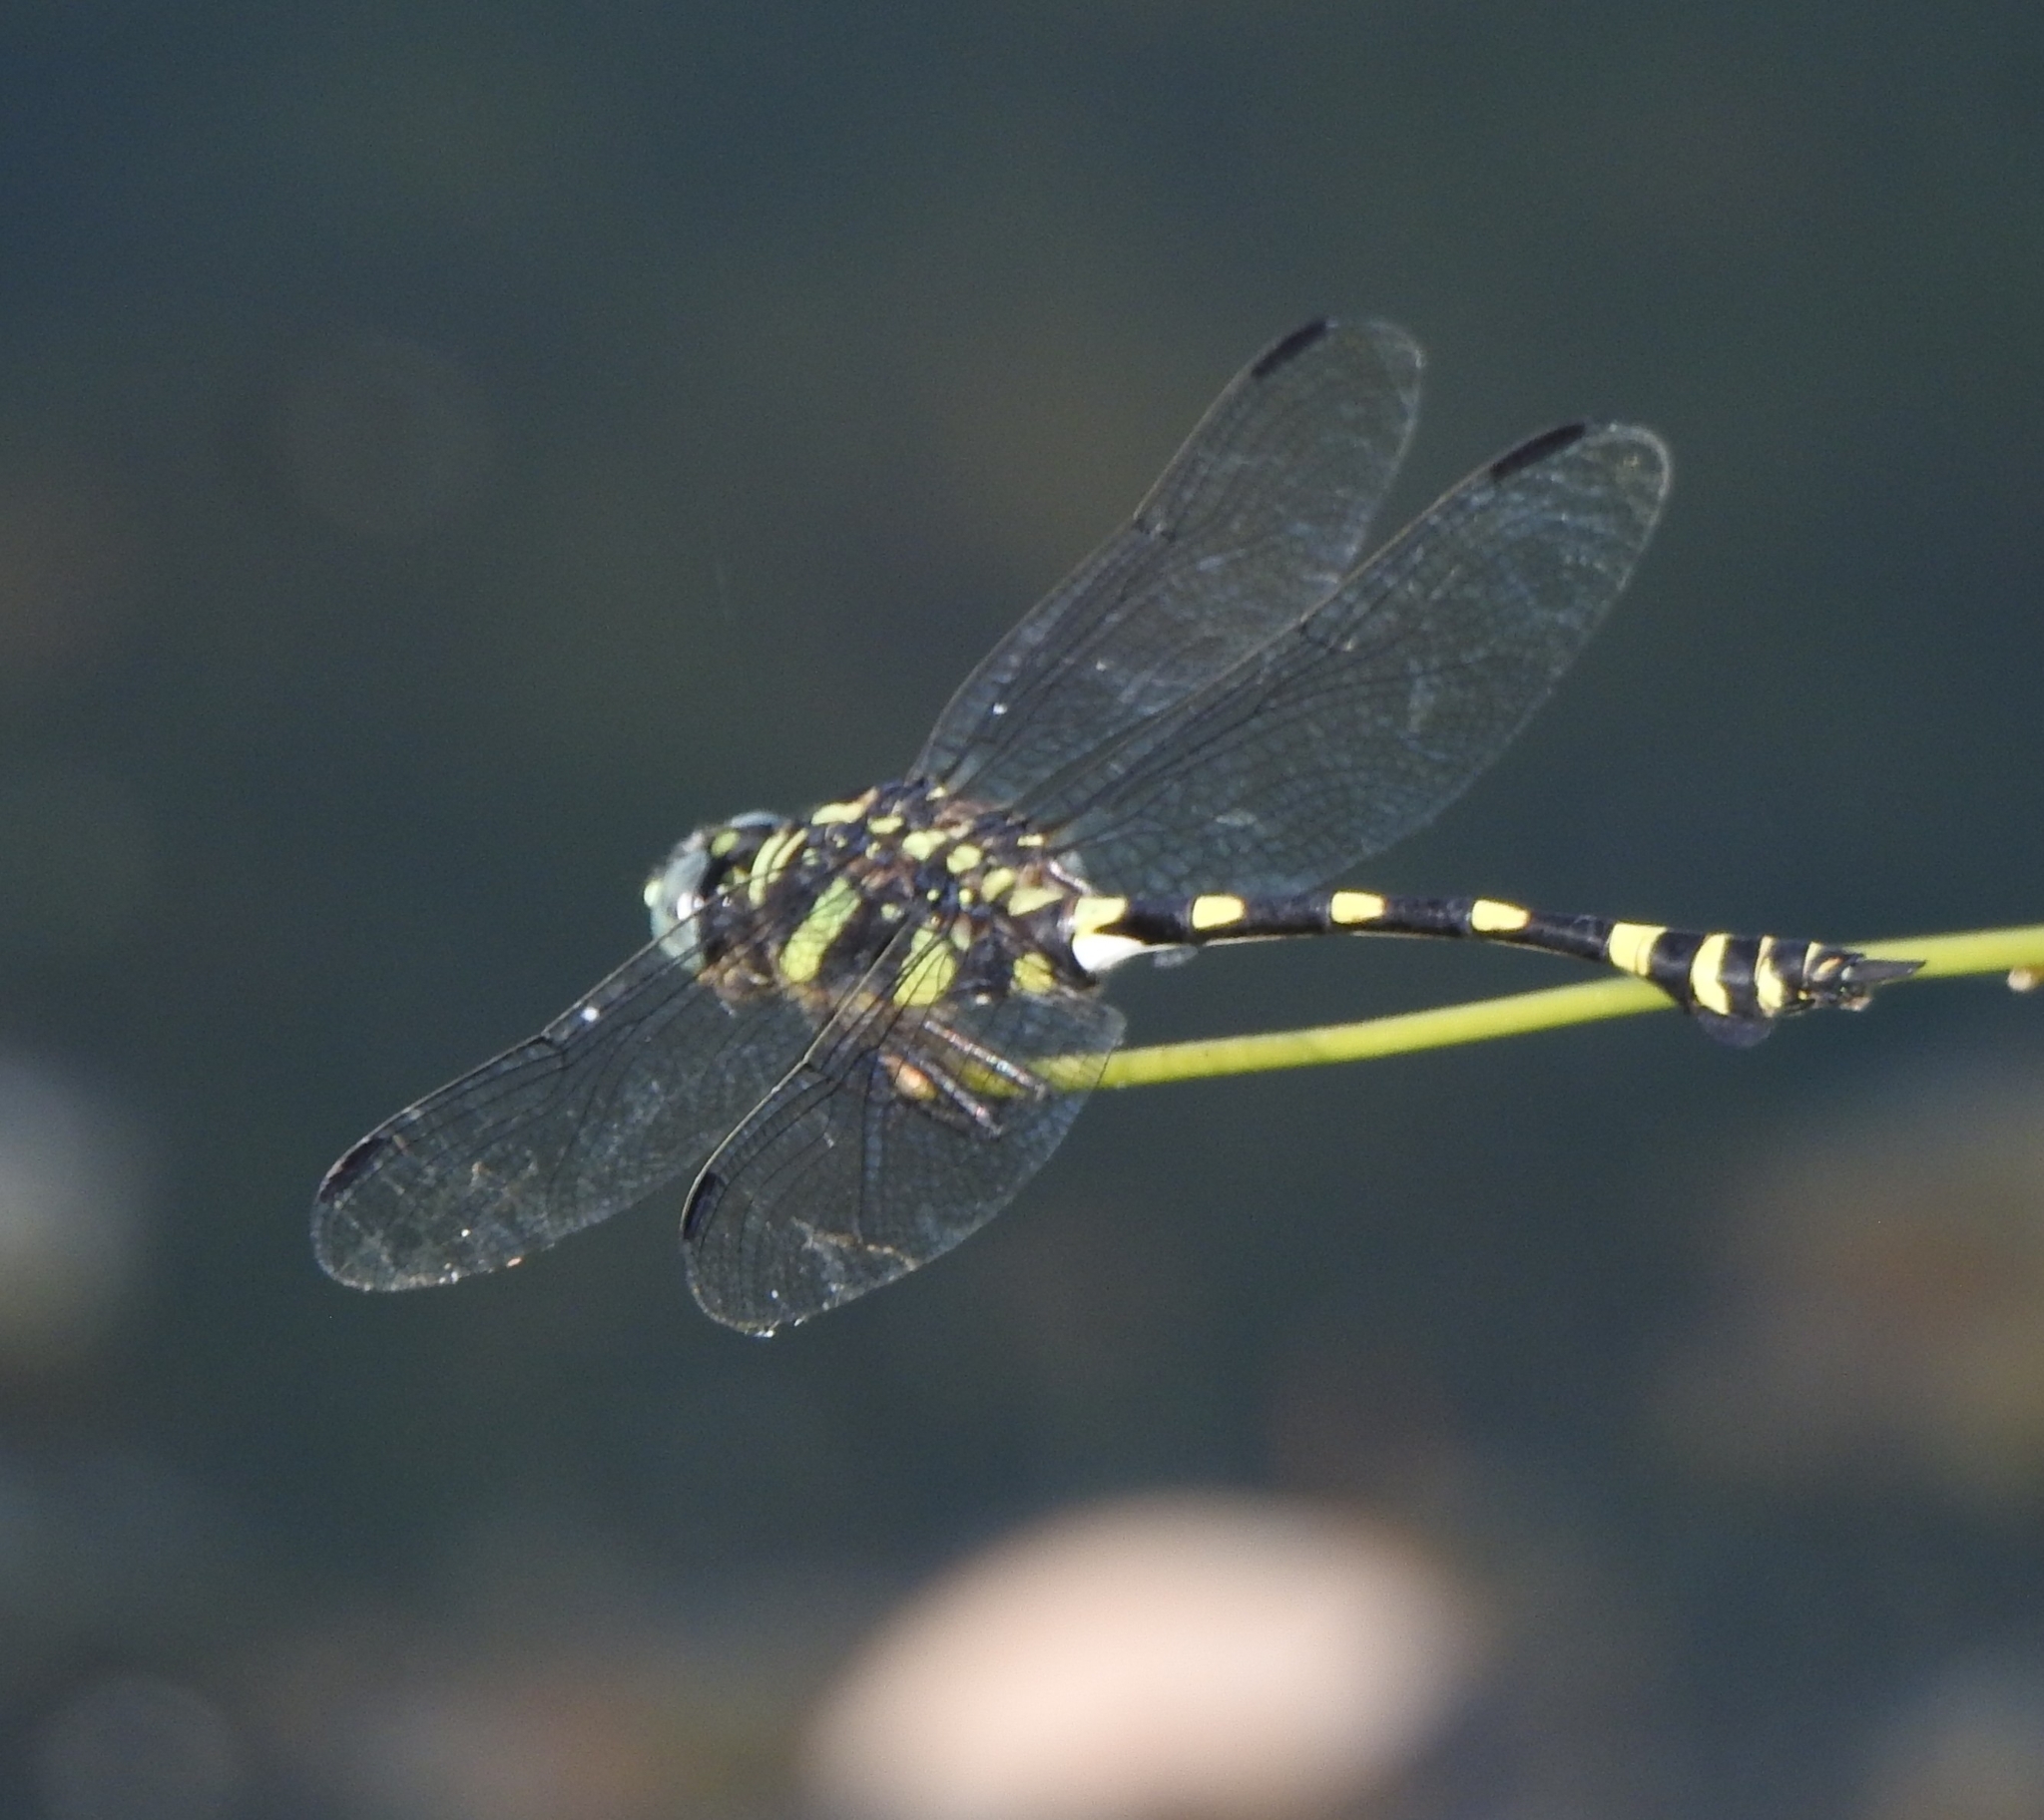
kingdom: Animalia
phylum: Arthropoda
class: Insecta
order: Odonata
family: Gomphidae
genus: Ictinogomphus
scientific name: Ictinogomphus rapax
